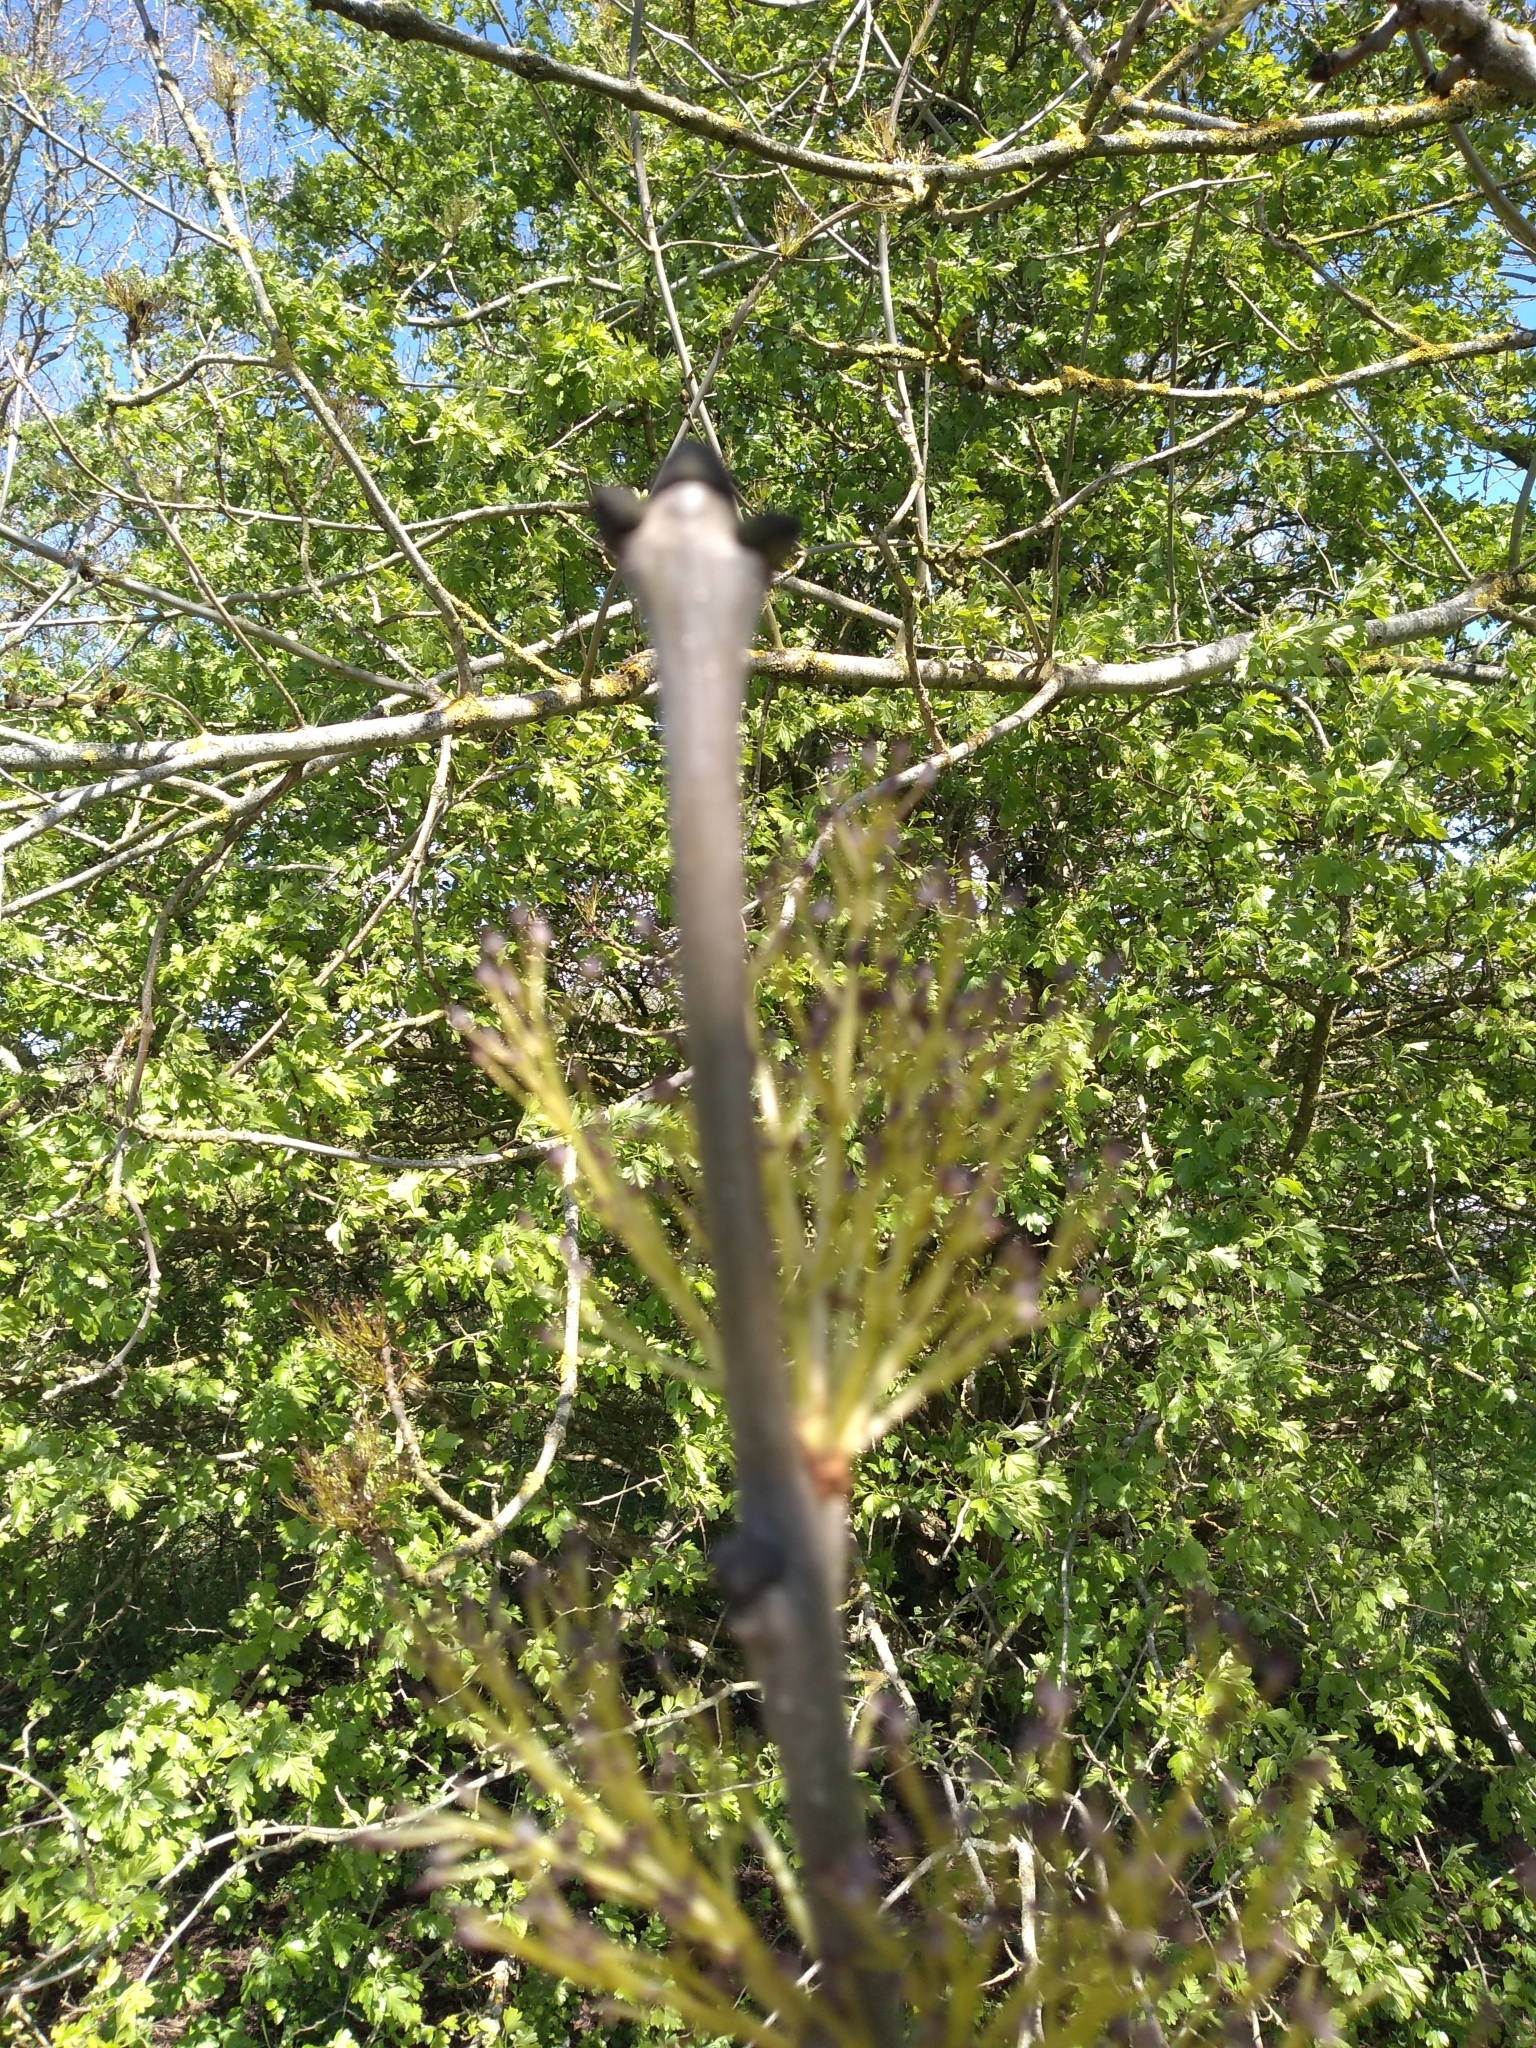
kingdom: Plantae
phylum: Tracheophyta
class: Magnoliopsida
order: Lamiales
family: Oleaceae
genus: Fraxinus
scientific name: Fraxinus excelsior
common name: European ash
